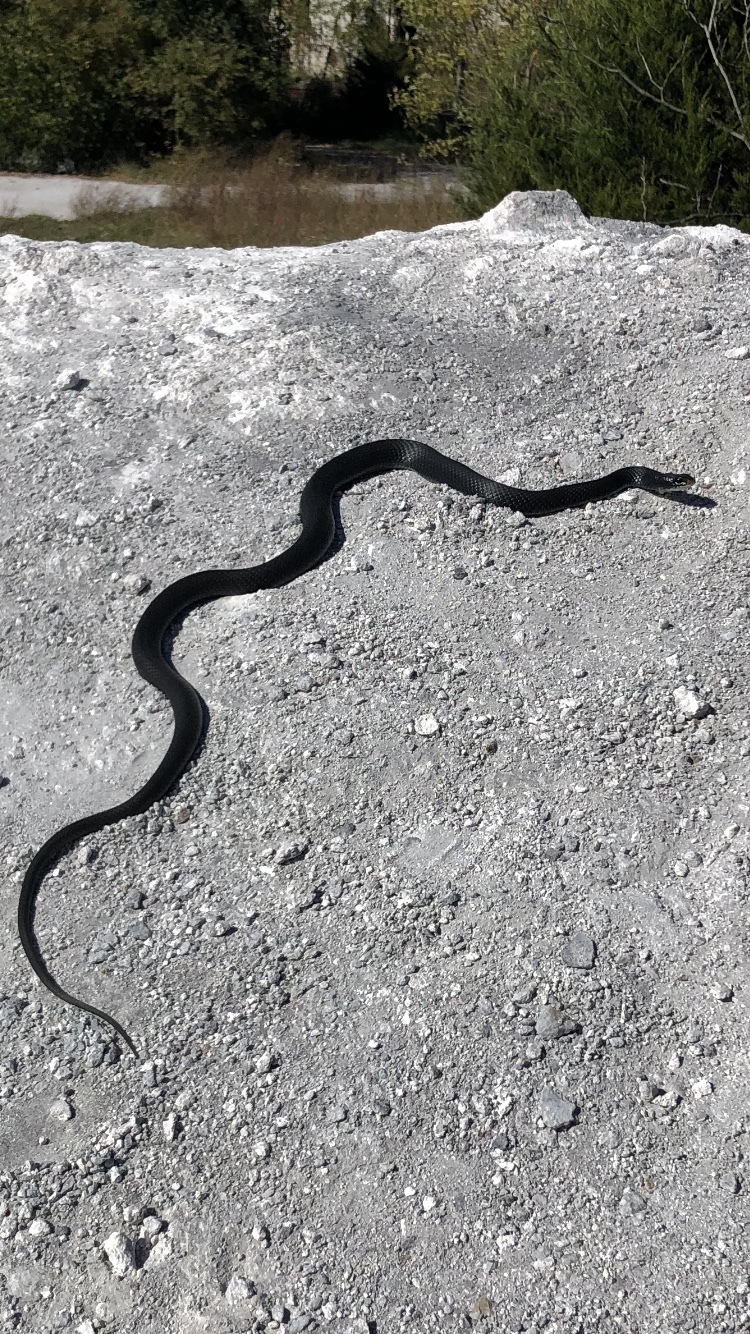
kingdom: Animalia
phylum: Chordata
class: Squamata
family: Colubridae
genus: Coluber
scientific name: Coluber constrictor
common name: Eastern racer
